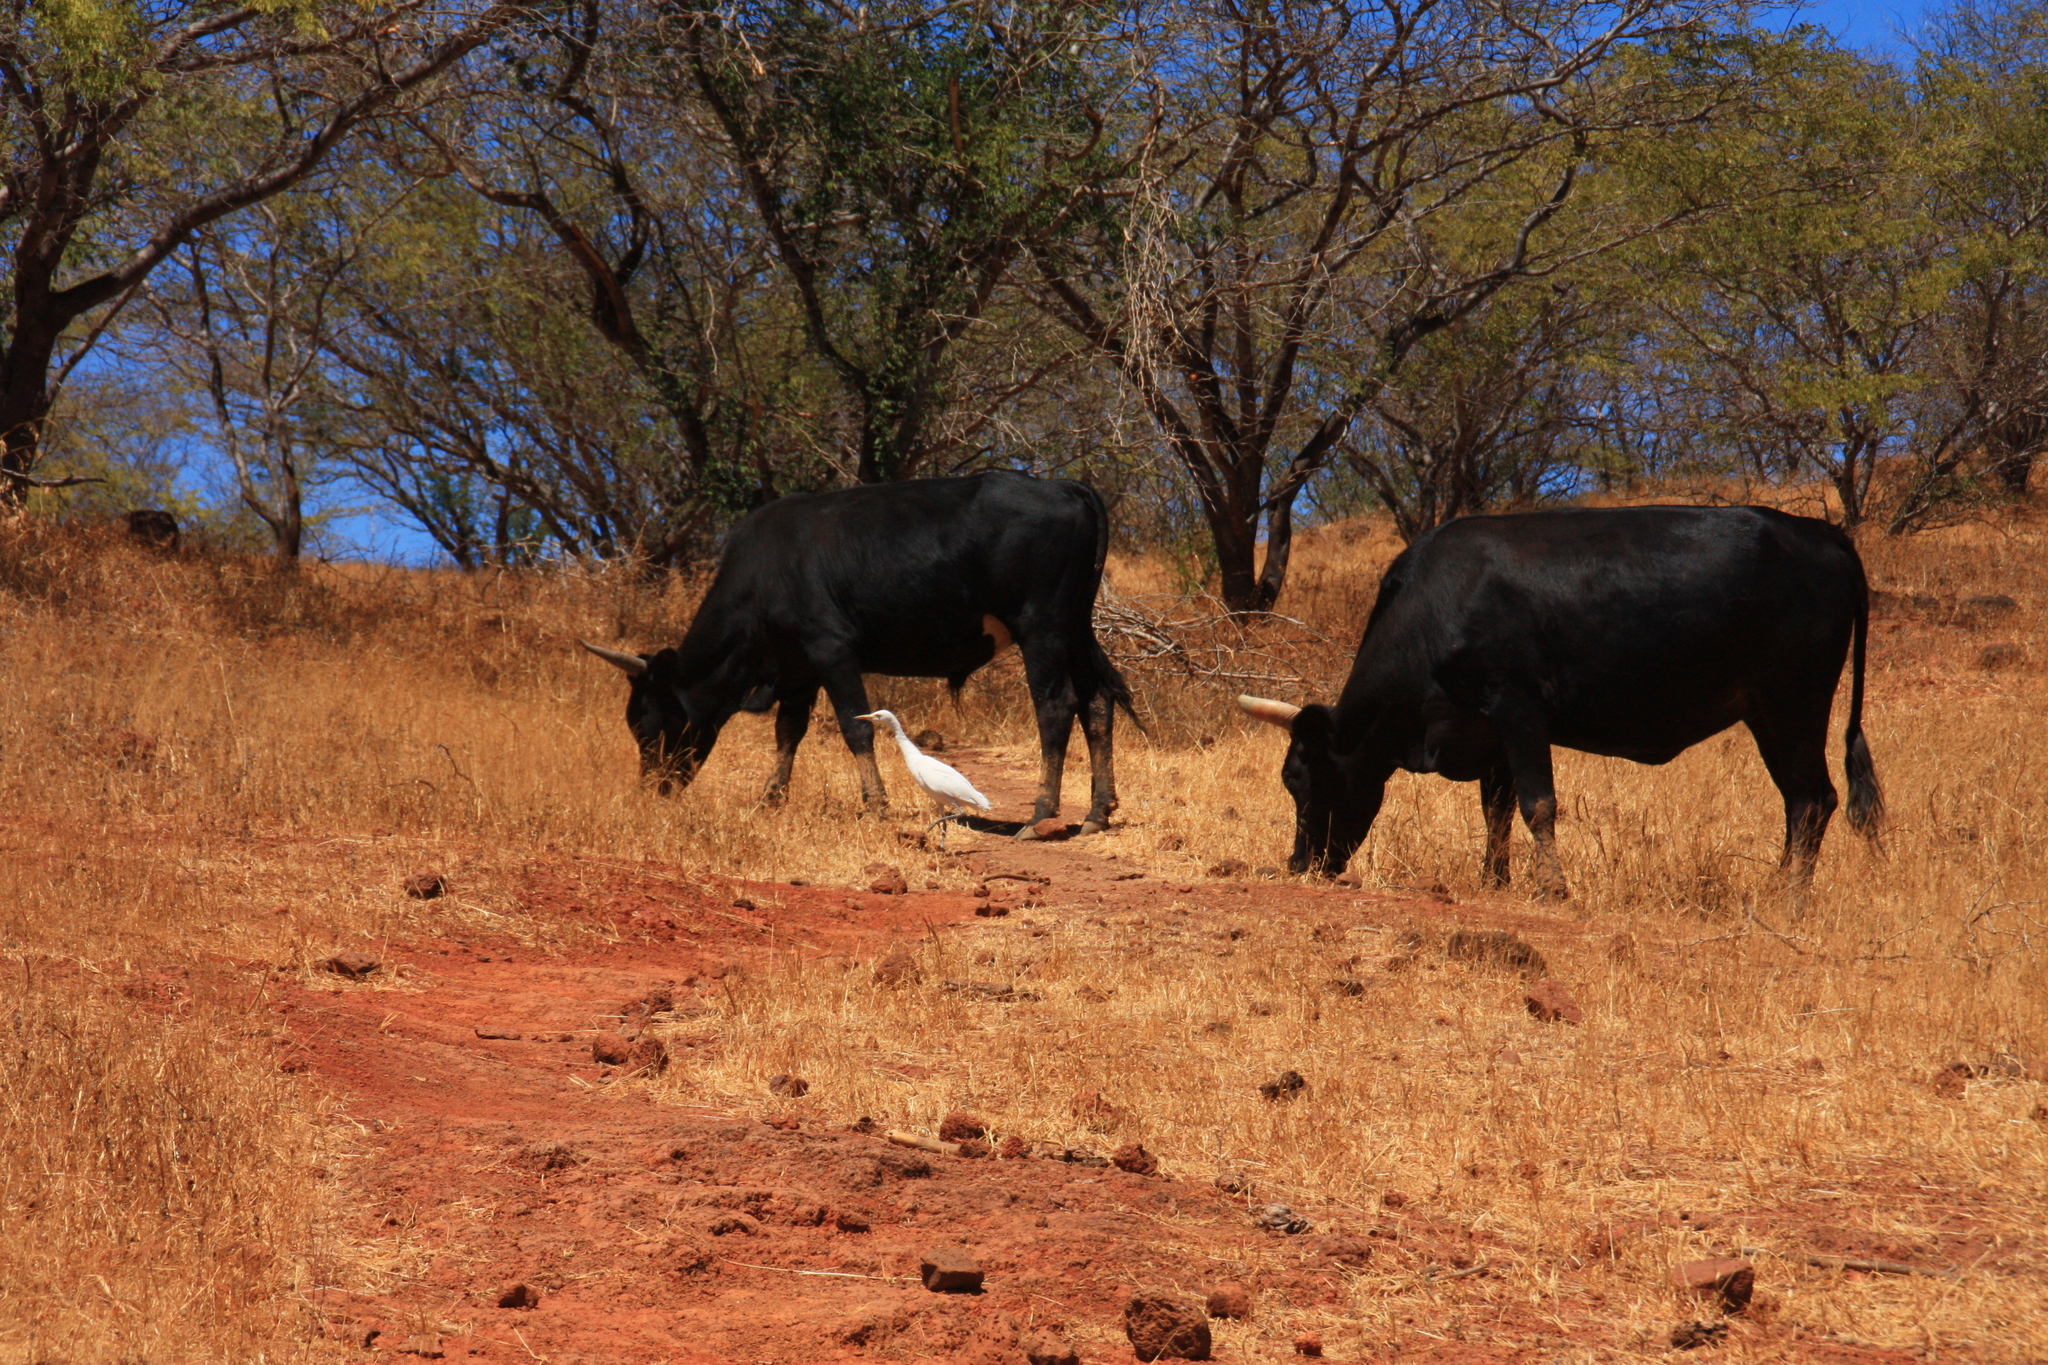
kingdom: Animalia
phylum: Chordata
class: Aves
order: Pelecaniformes
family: Ardeidae
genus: Bubulcus
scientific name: Bubulcus ibis
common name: Cattle egret
